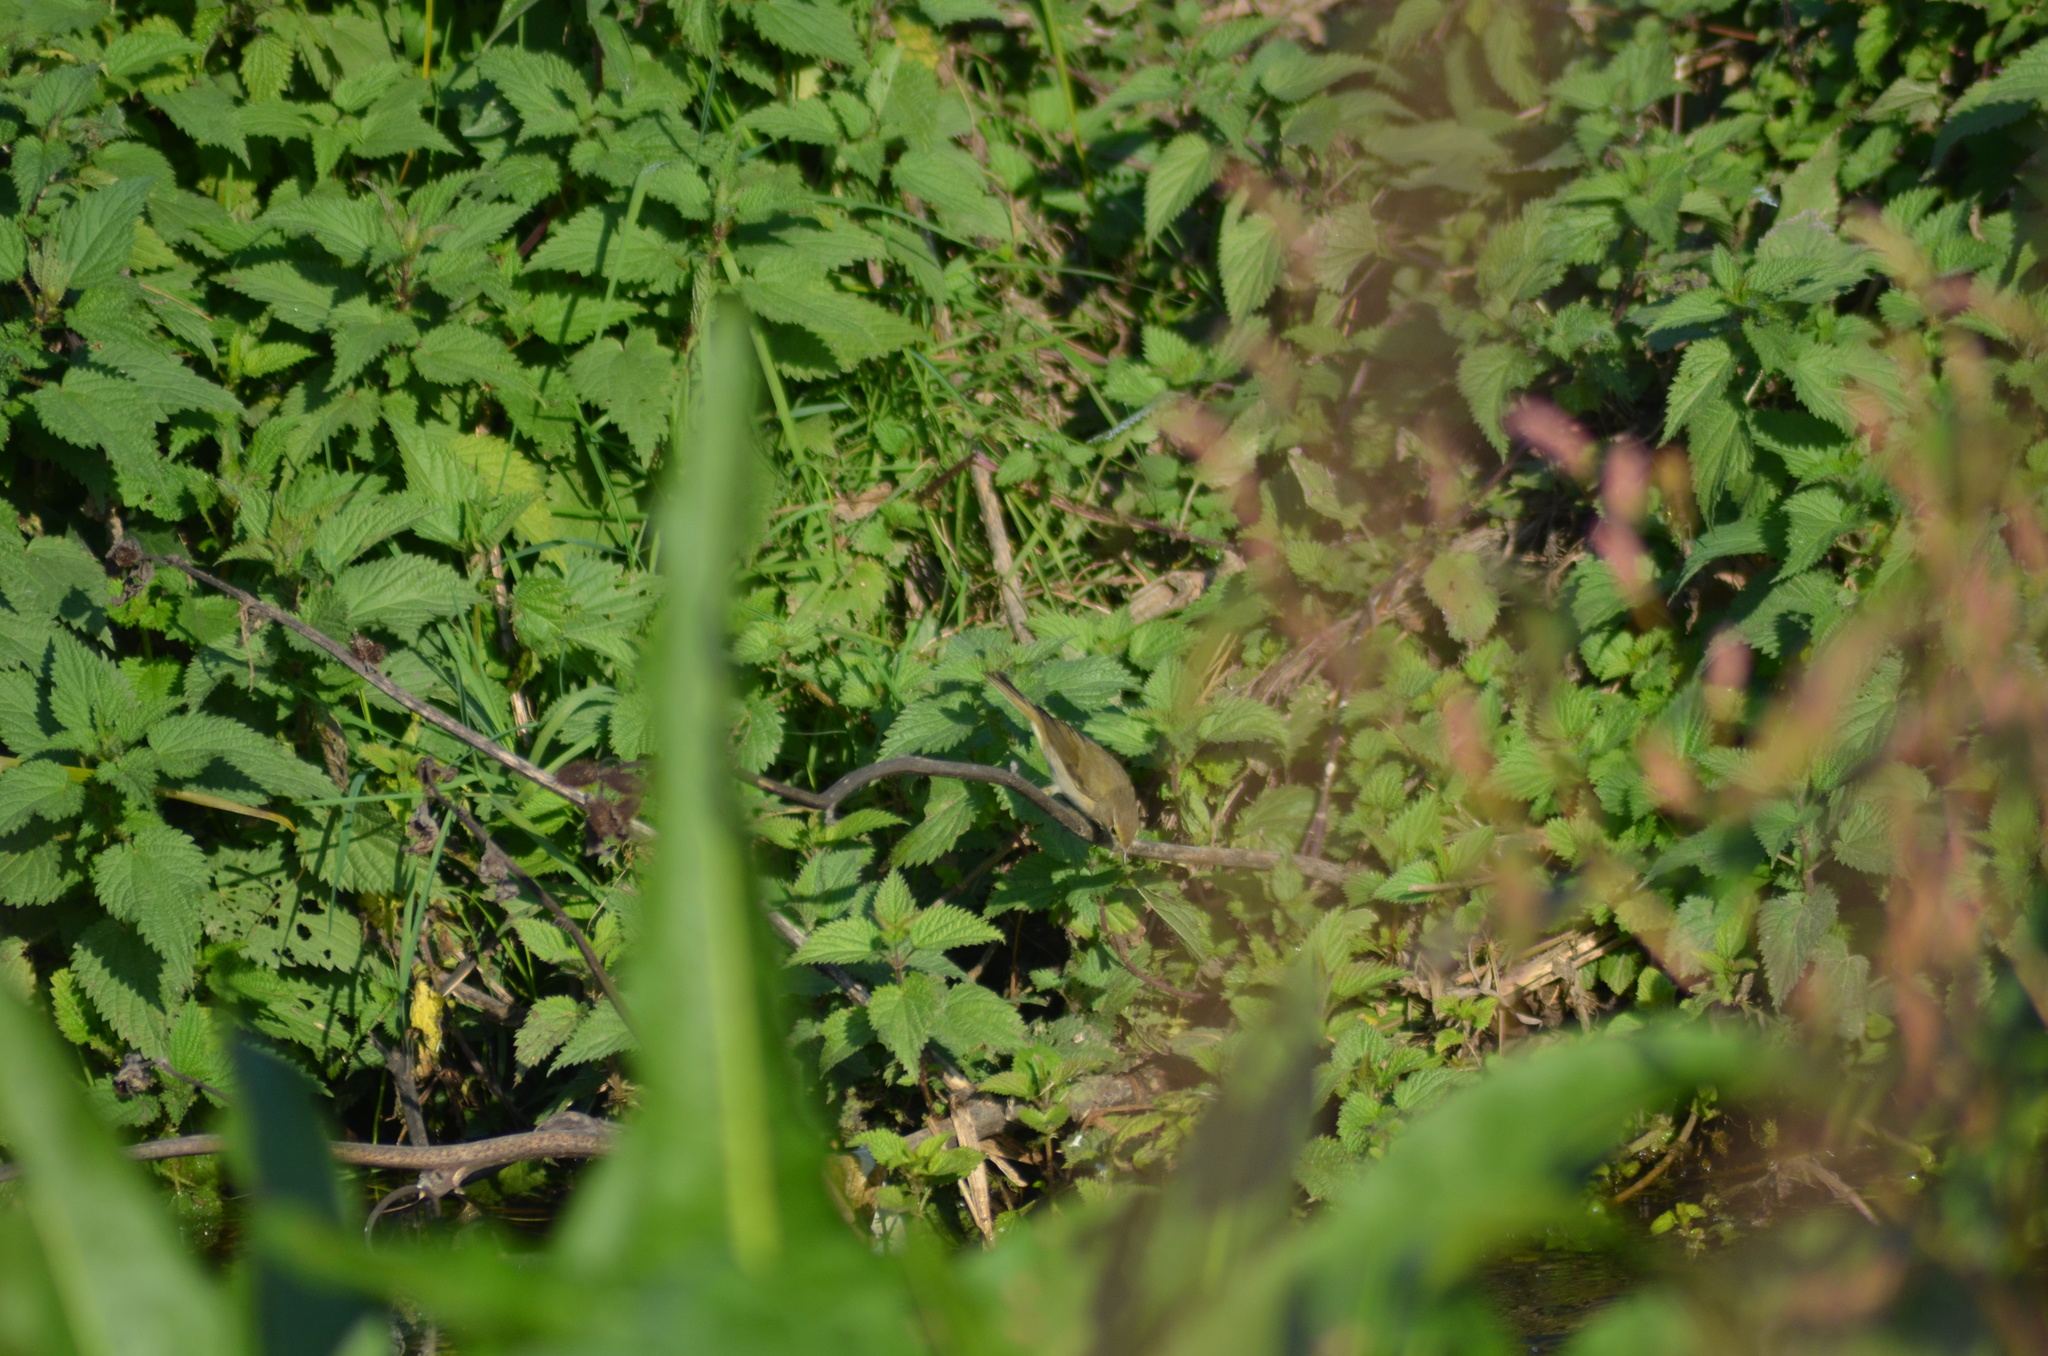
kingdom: Animalia
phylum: Chordata
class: Aves
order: Passeriformes
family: Phylloscopidae
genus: Phylloscopus
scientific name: Phylloscopus collybita
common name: Common chiffchaff
